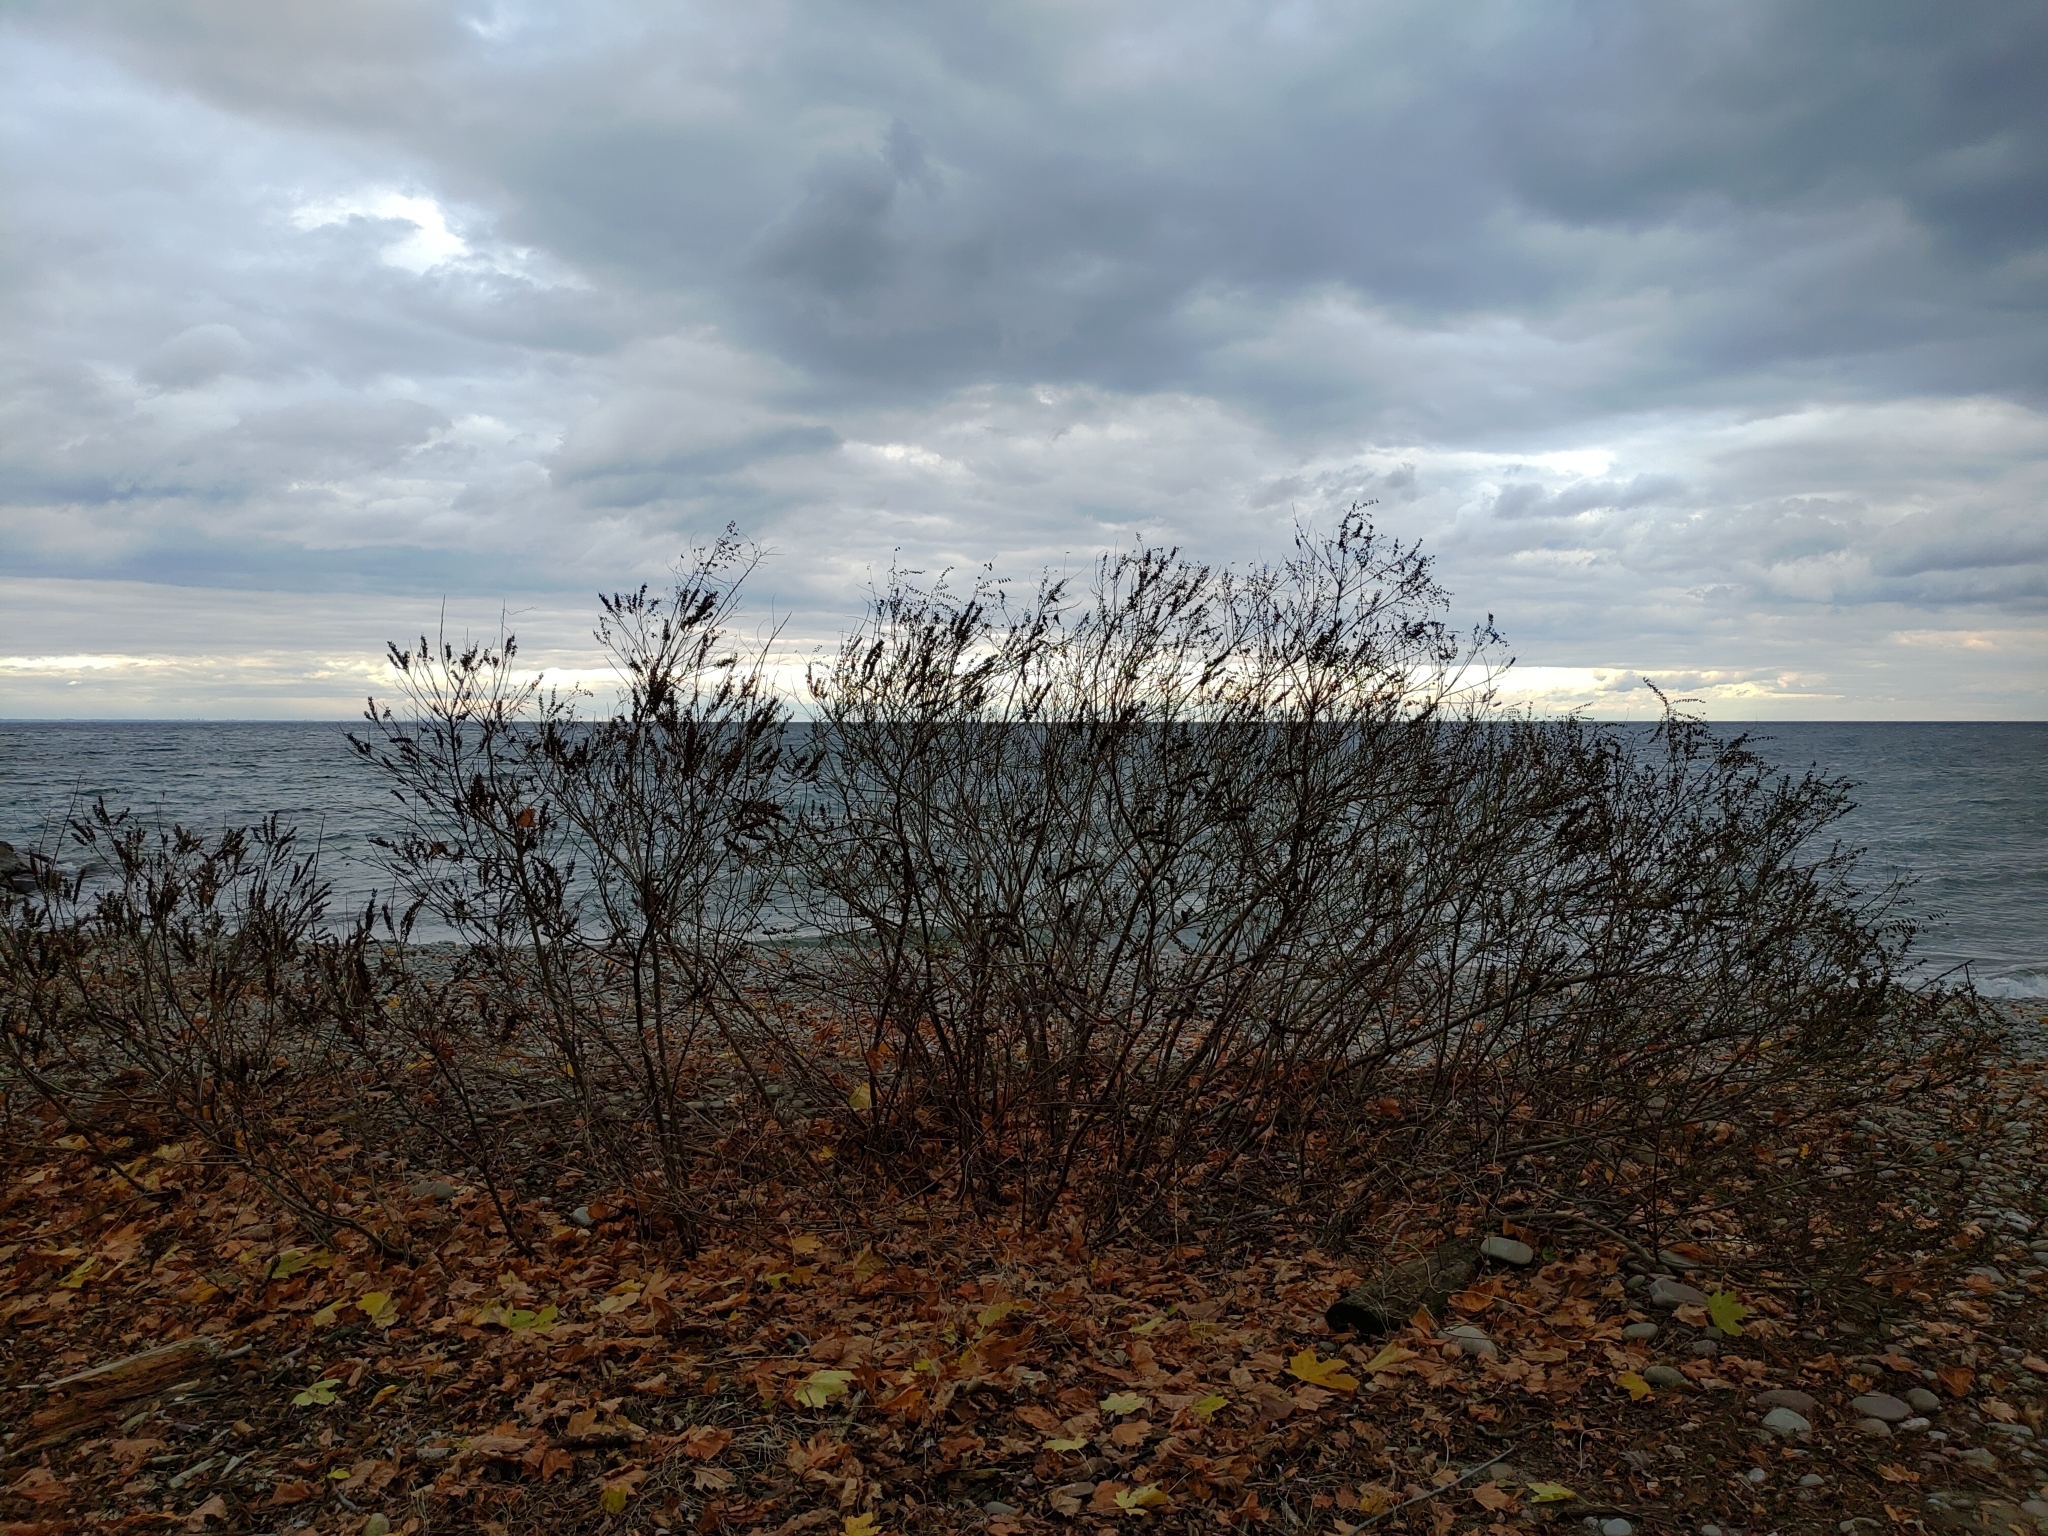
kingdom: Plantae
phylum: Tracheophyta
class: Magnoliopsida
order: Fabales
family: Fabaceae
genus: Amorpha
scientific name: Amorpha fruticosa
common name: False indigo
